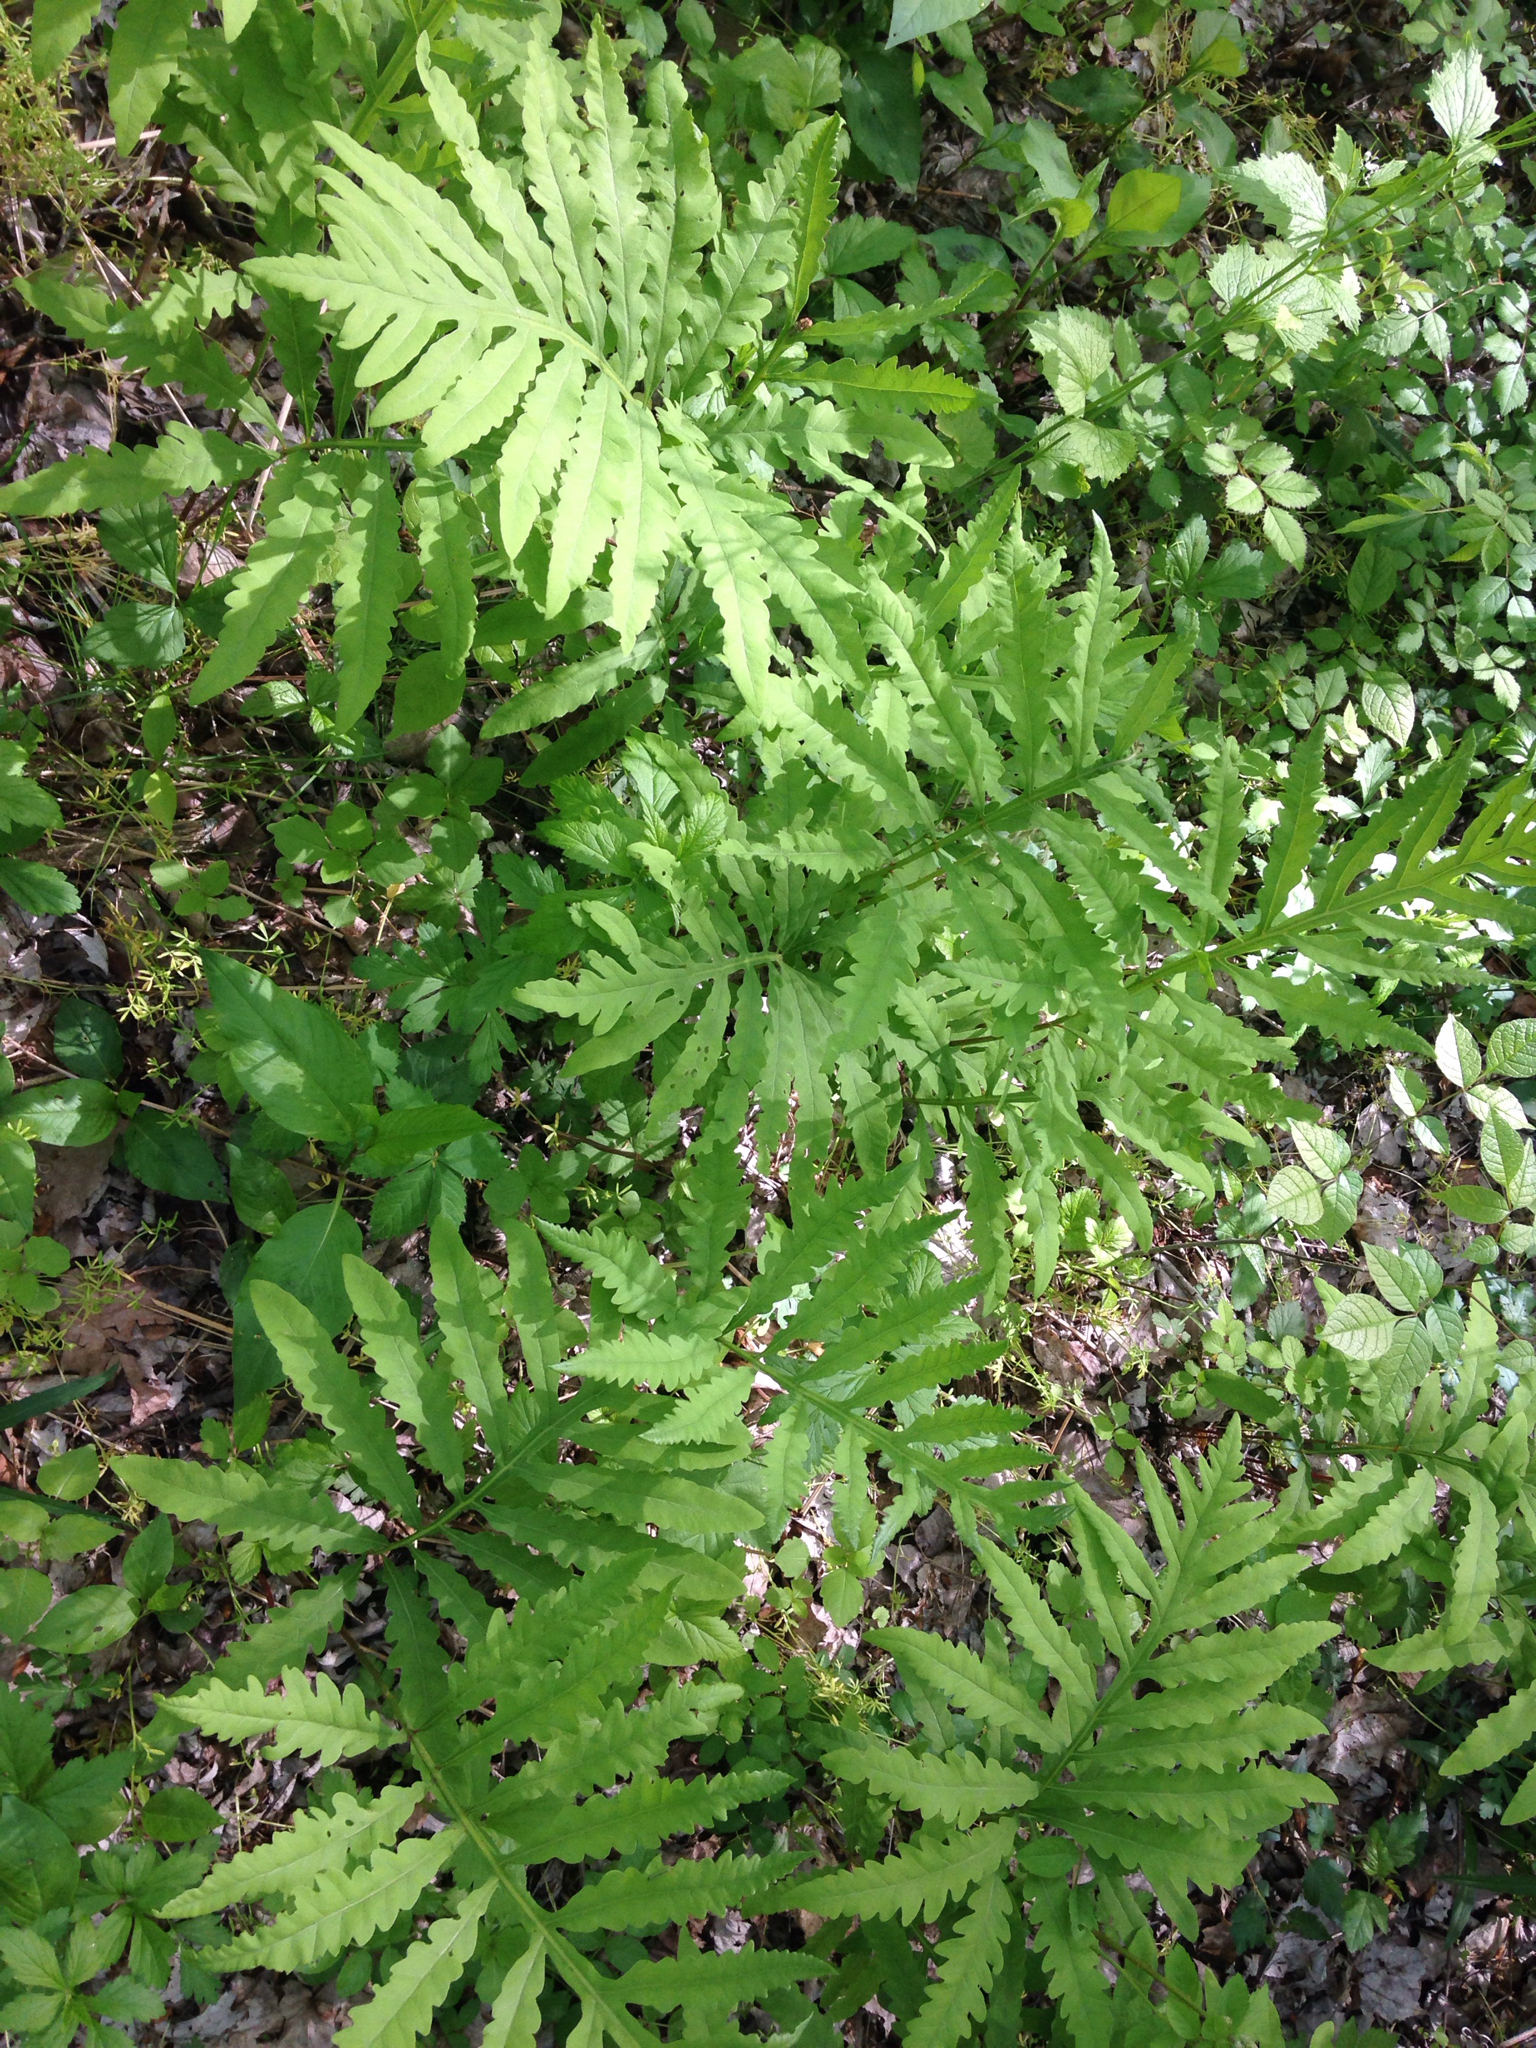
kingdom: Plantae
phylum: Tracheophyta
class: Polypodiopsida
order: Polypodiales
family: Onocleaceae
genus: Onoclea
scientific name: Onoclea sensibilis
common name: Sensitive fern
